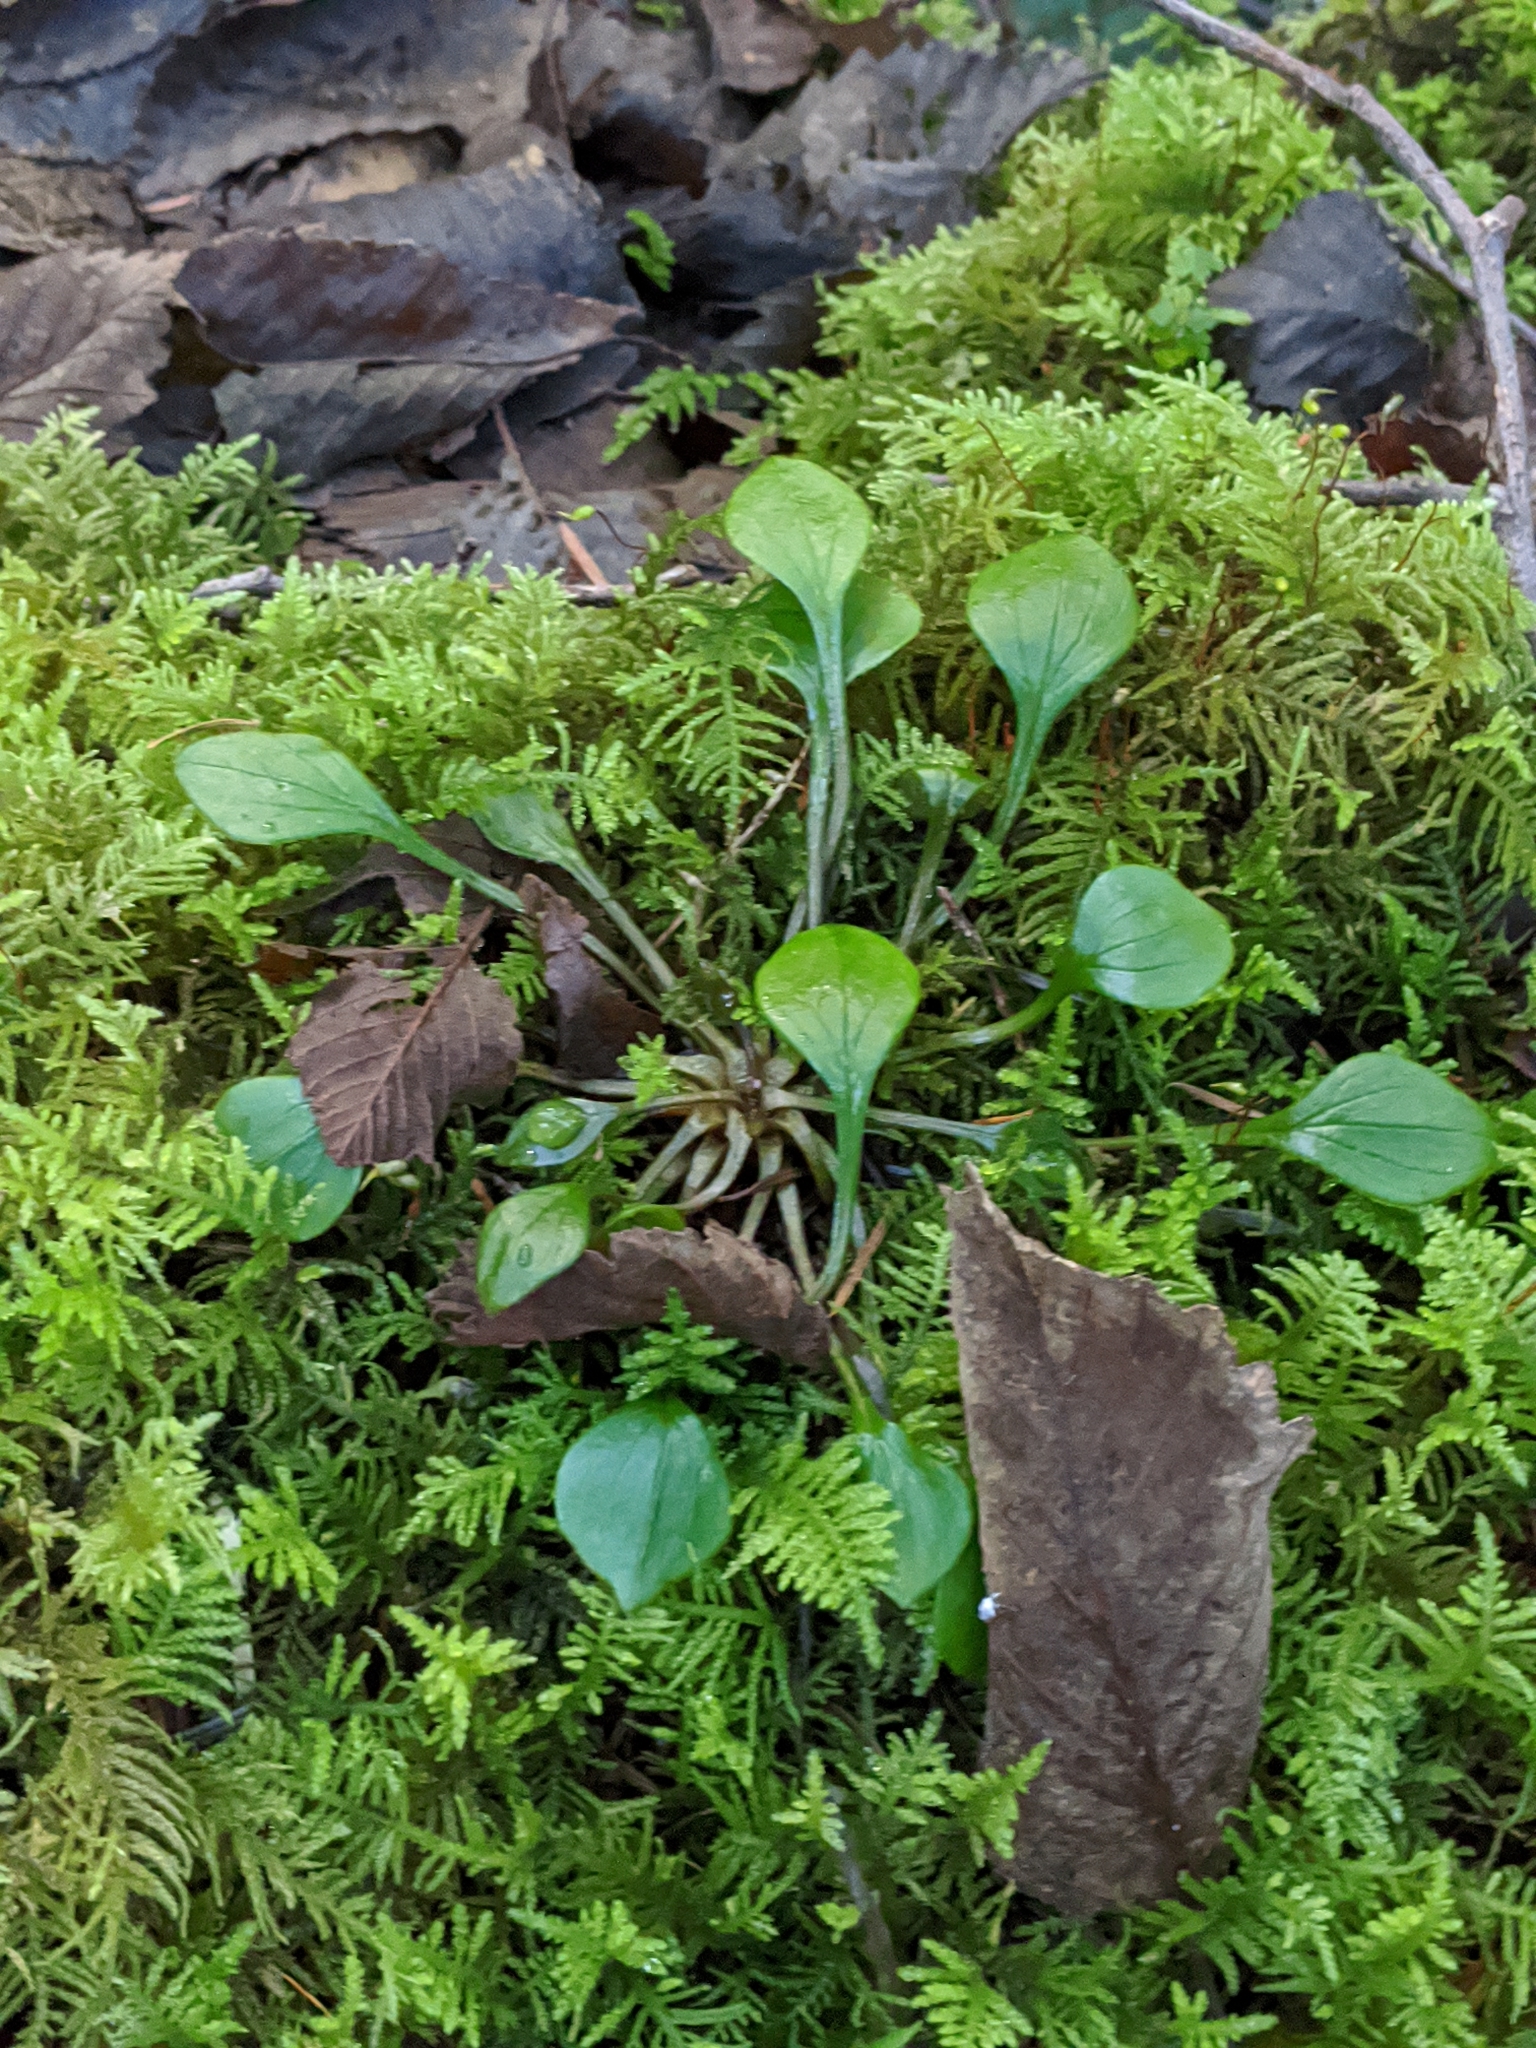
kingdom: Plantae
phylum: Tracheophyta
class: Magnoliopsida
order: Caryophyllales
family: Montiaceae
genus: Claytonia
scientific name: Claytonia sibirica
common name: Pink purslane
